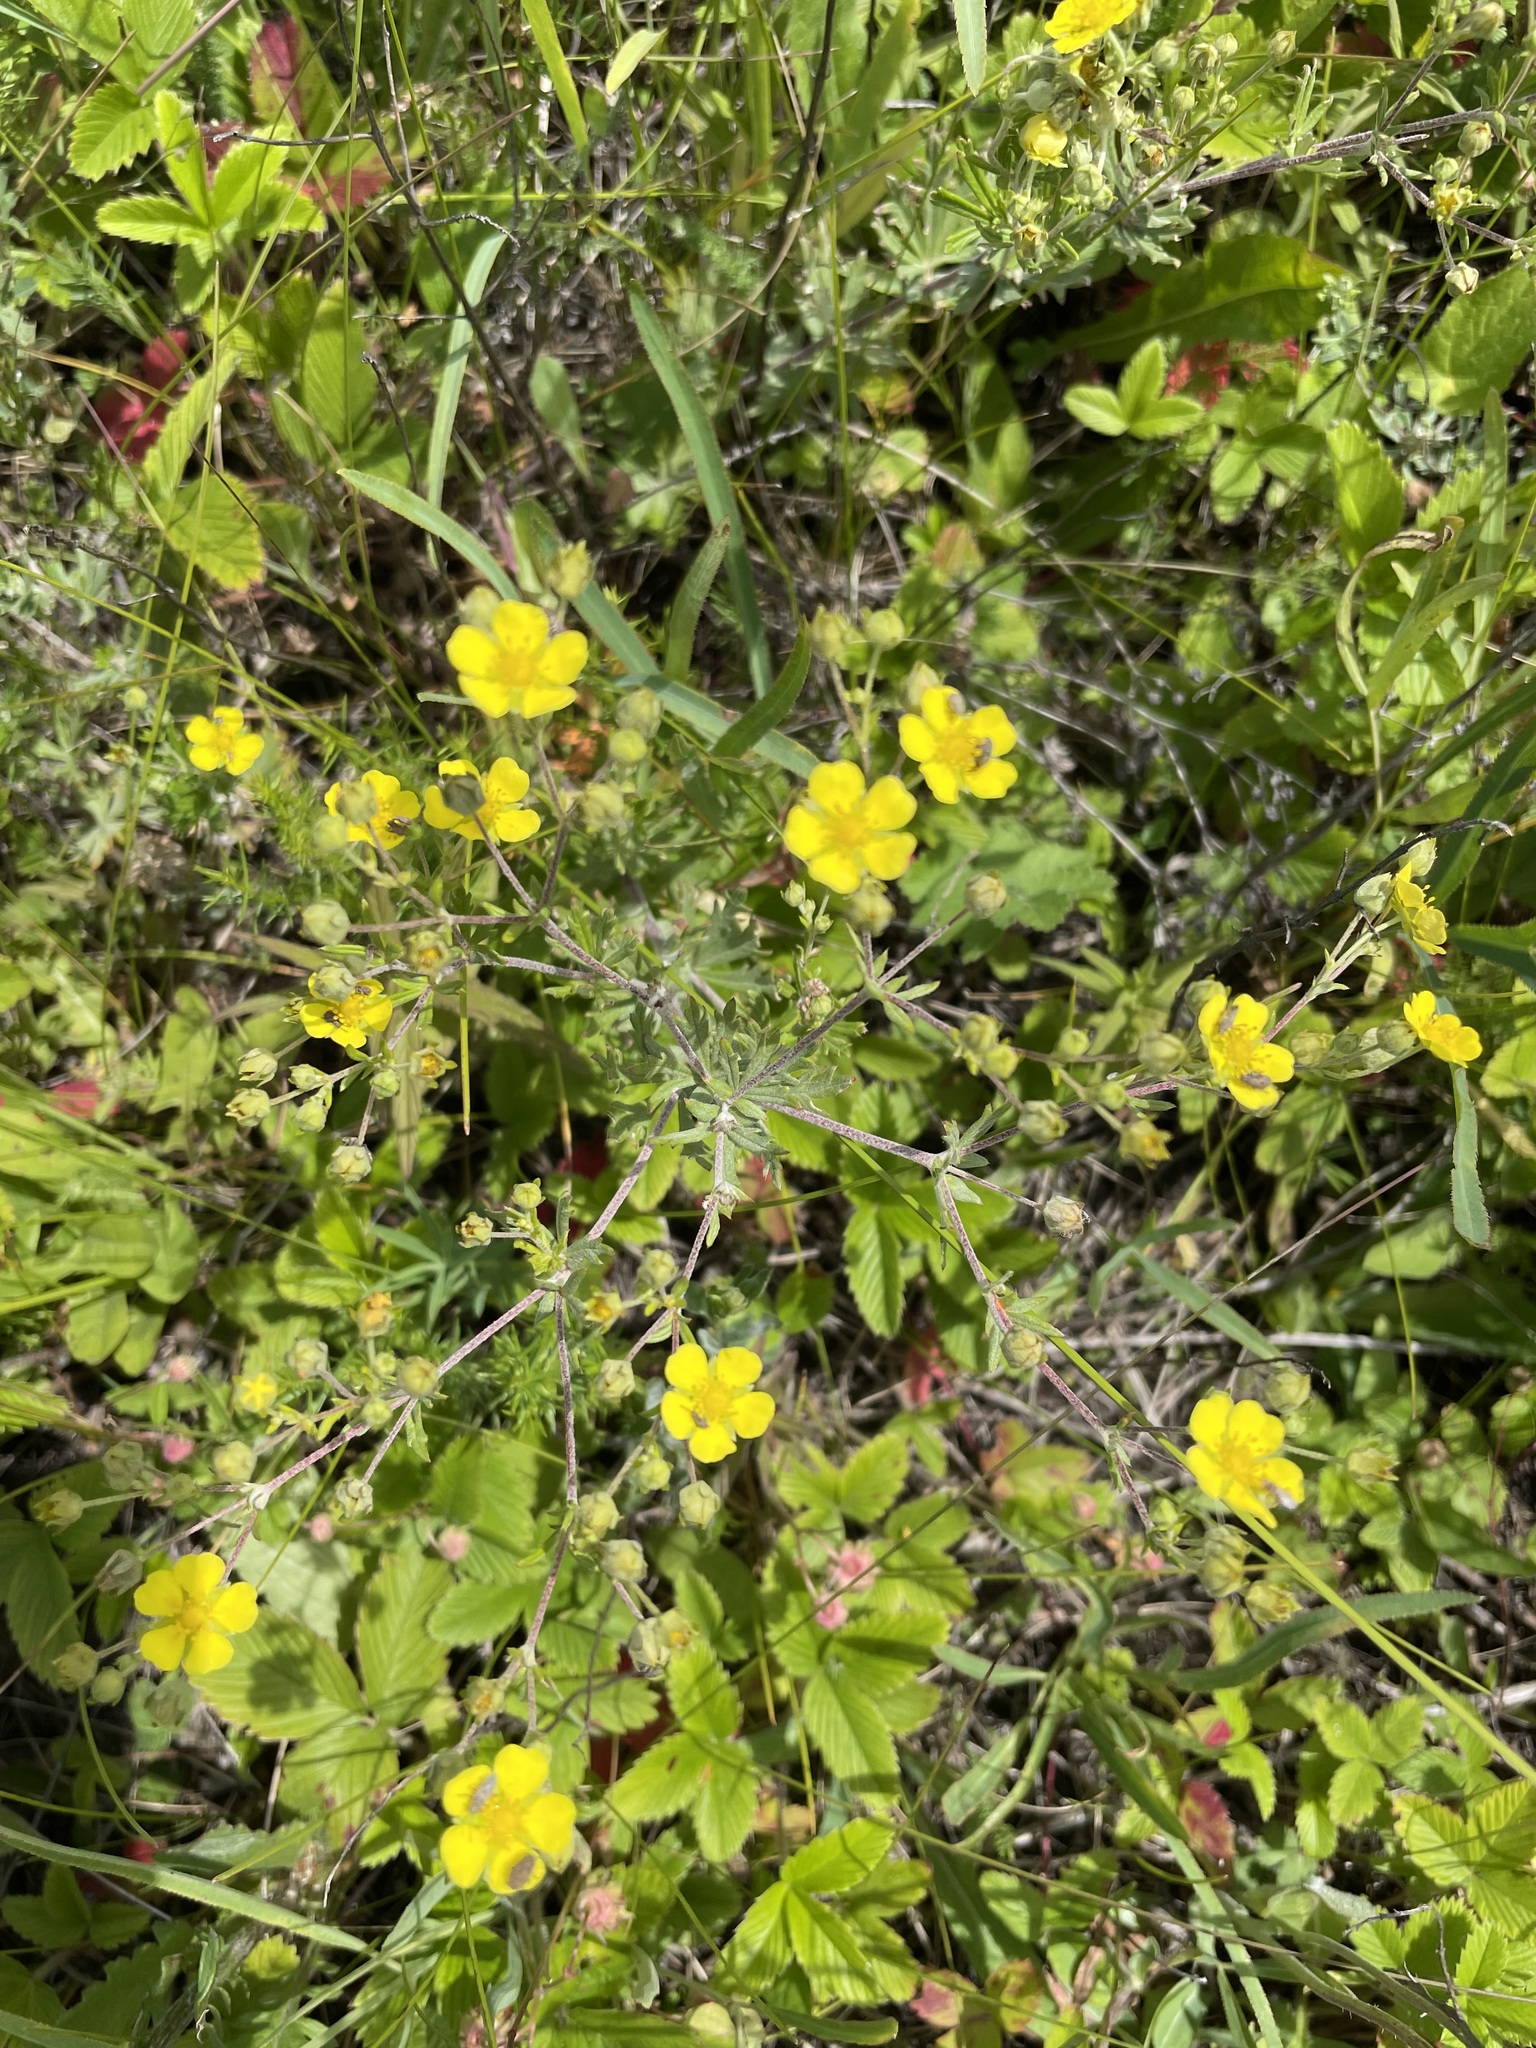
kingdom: Plantae
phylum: Tracheophyta
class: Magnoliopsida
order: Rosales
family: Rosaceae
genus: Potentilla
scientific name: Potentilla argentea
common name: Hoary cinquefoil
